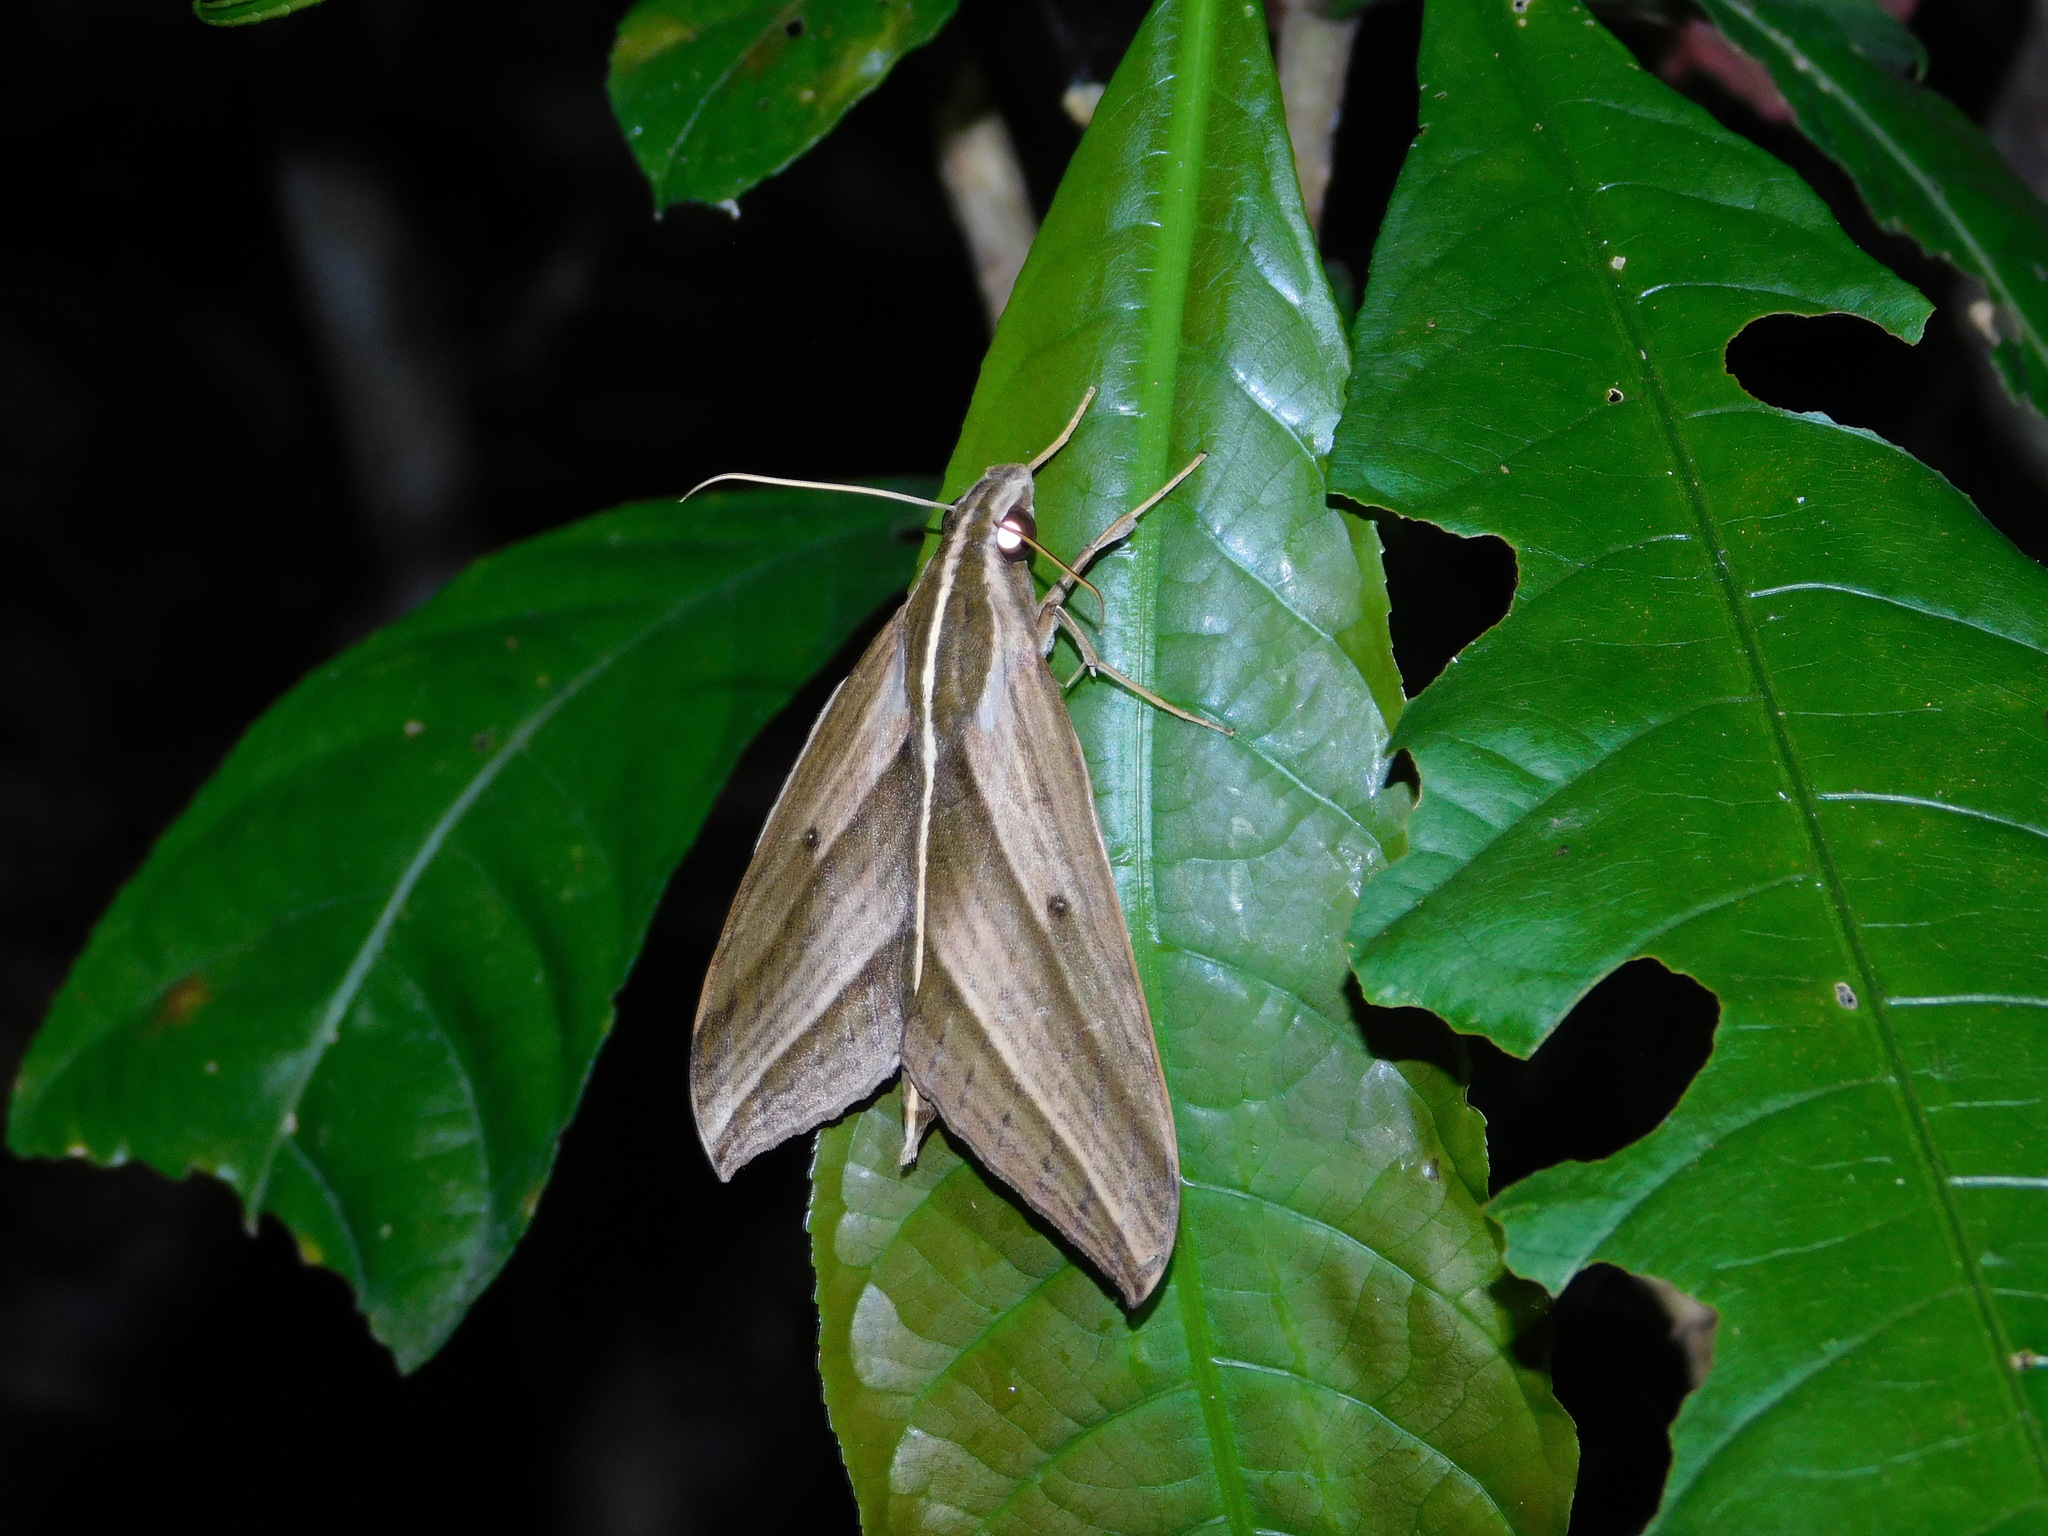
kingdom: Animalia
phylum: Arthropoda
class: Insecta
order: Lepidoptera
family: Sphingidae
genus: Elibia
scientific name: Elibia dolichus
